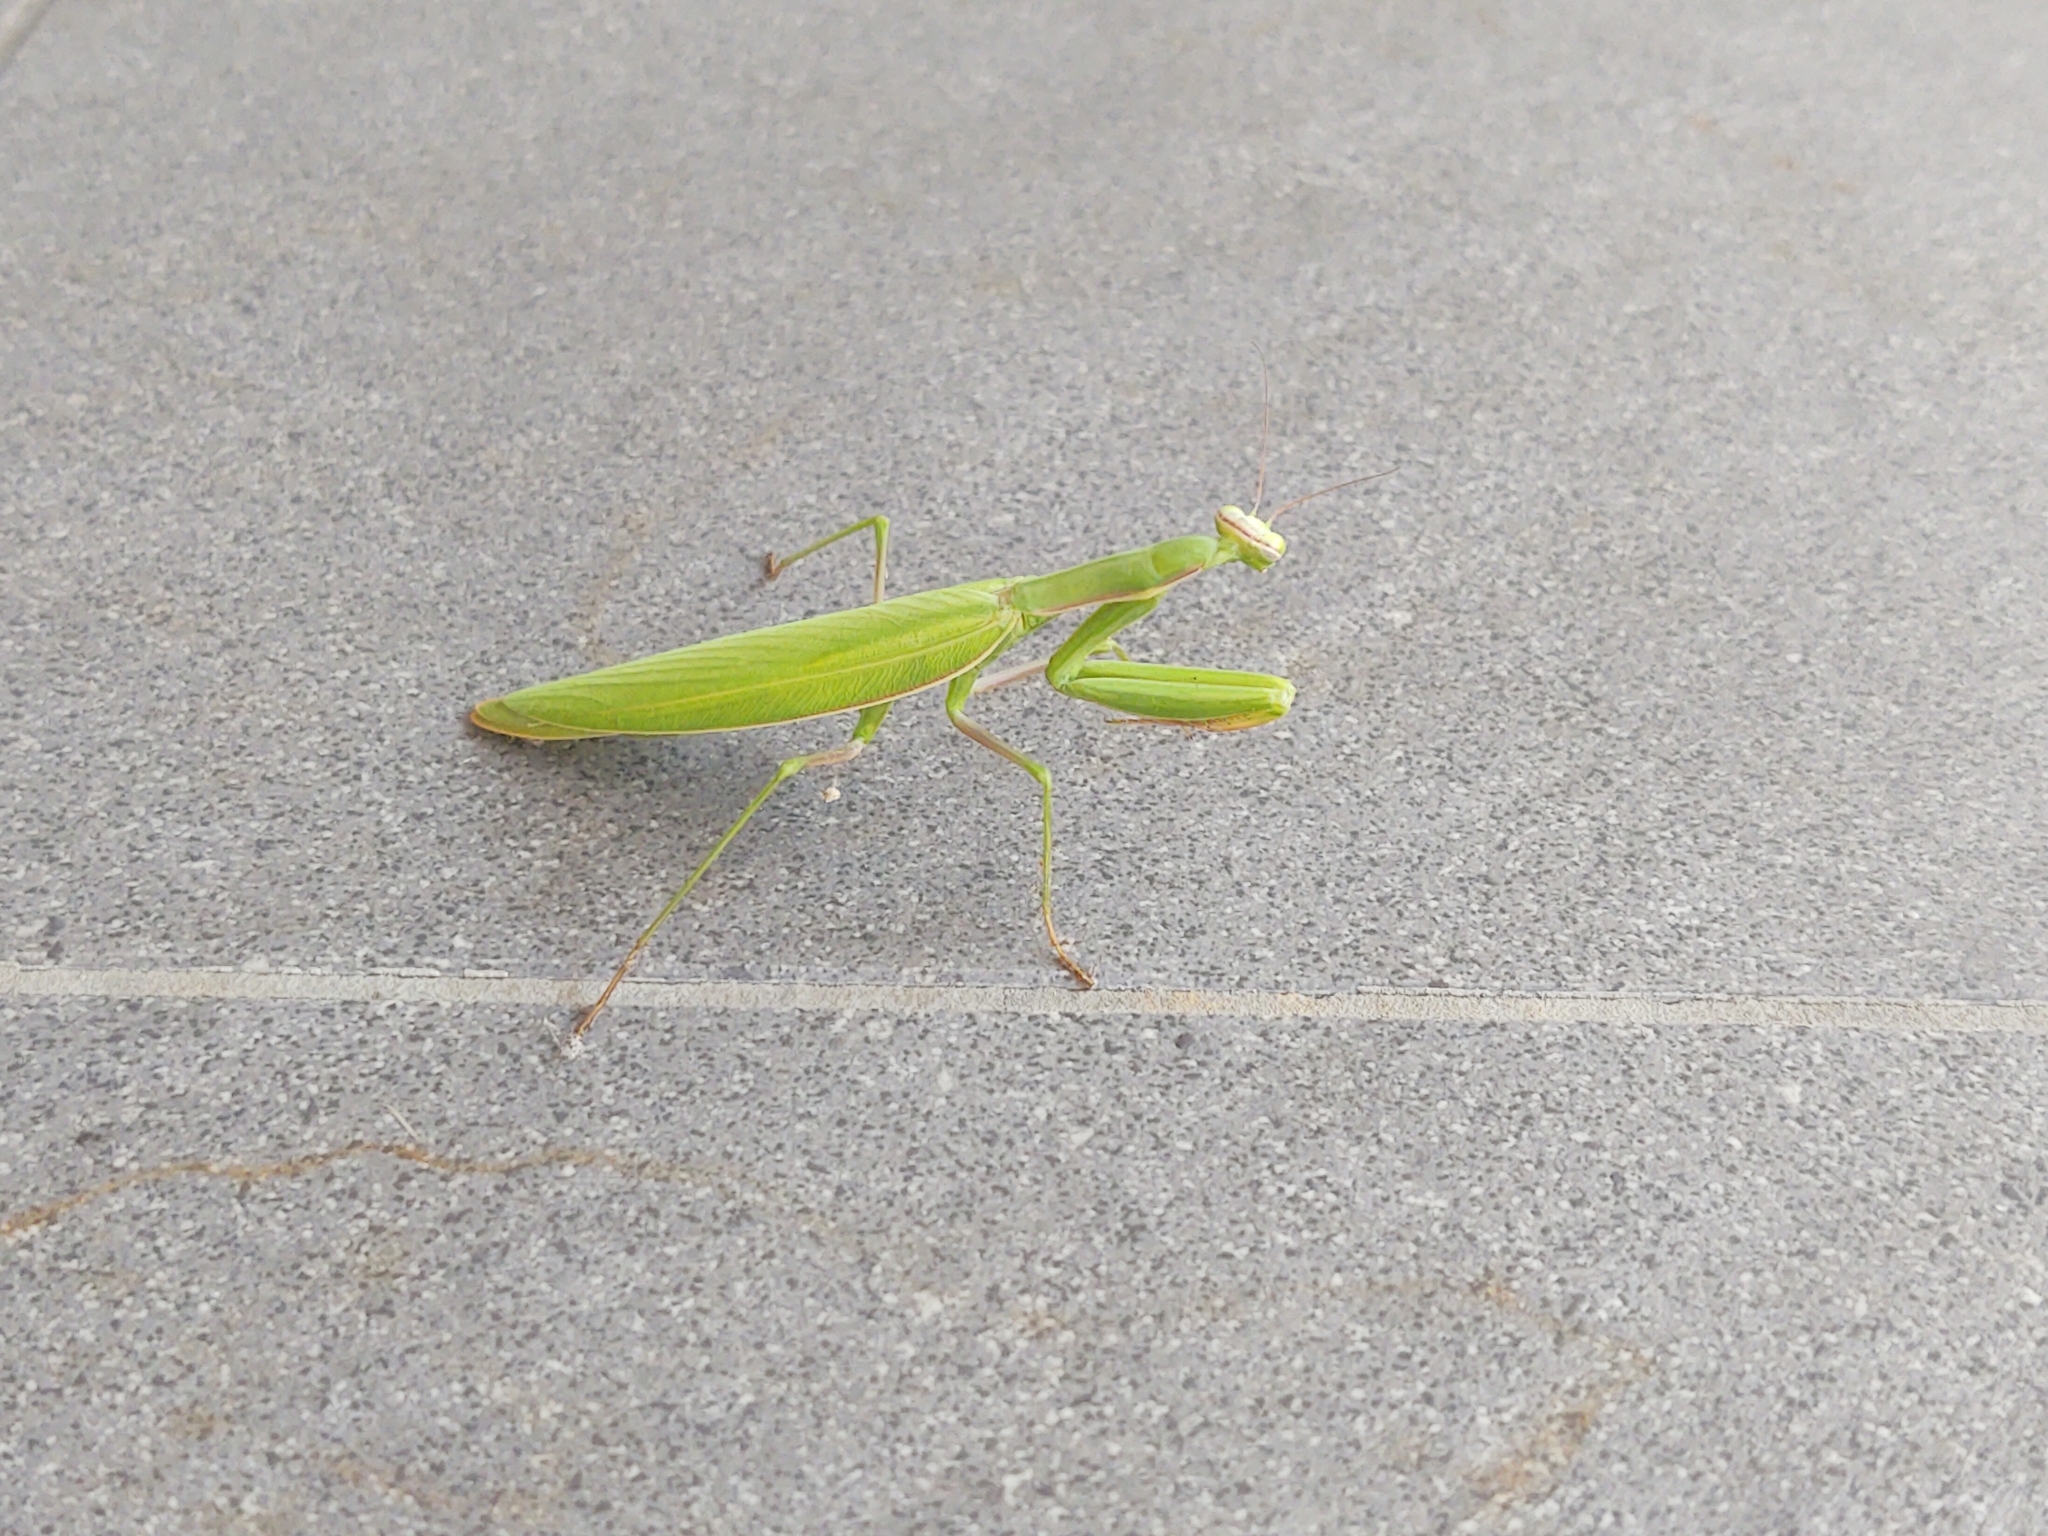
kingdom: Animalia
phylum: Arthropoda
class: Insecta
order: Mantodea
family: Mantidae
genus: Mantis
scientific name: Mantis religiosa
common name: Praying mantis
